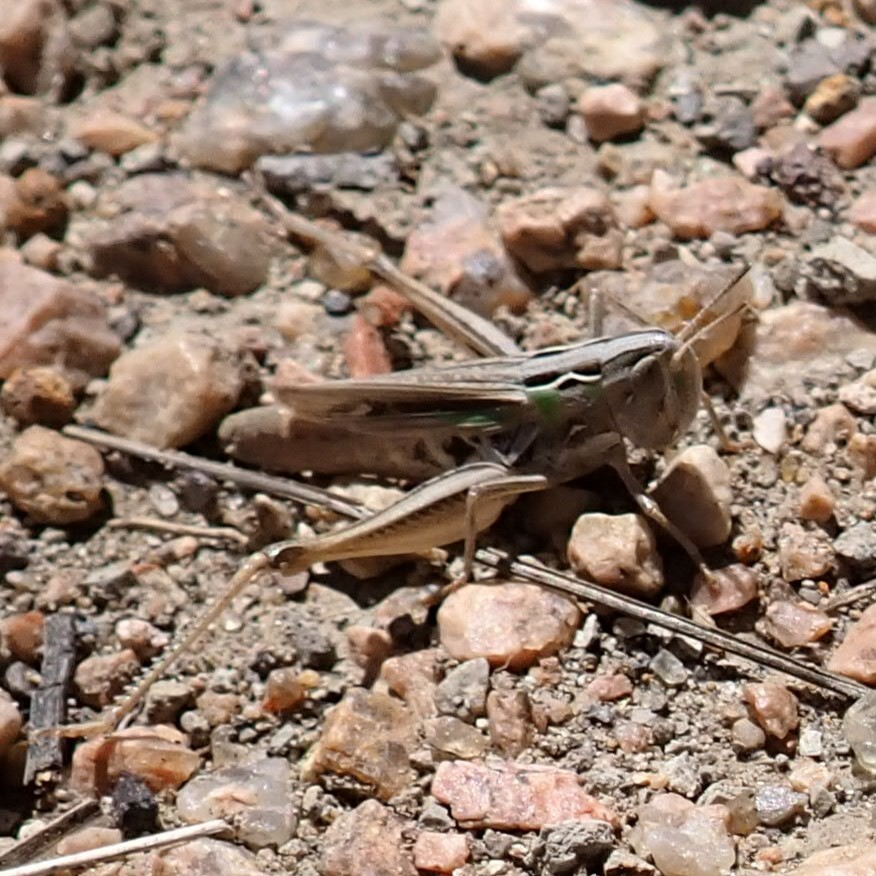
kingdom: Animalia
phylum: Arthropoda
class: Insecta
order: Orthoptera
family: Acrididae
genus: Eritettix
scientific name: Eritettix simplex
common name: Velvet-striped grasshopper
